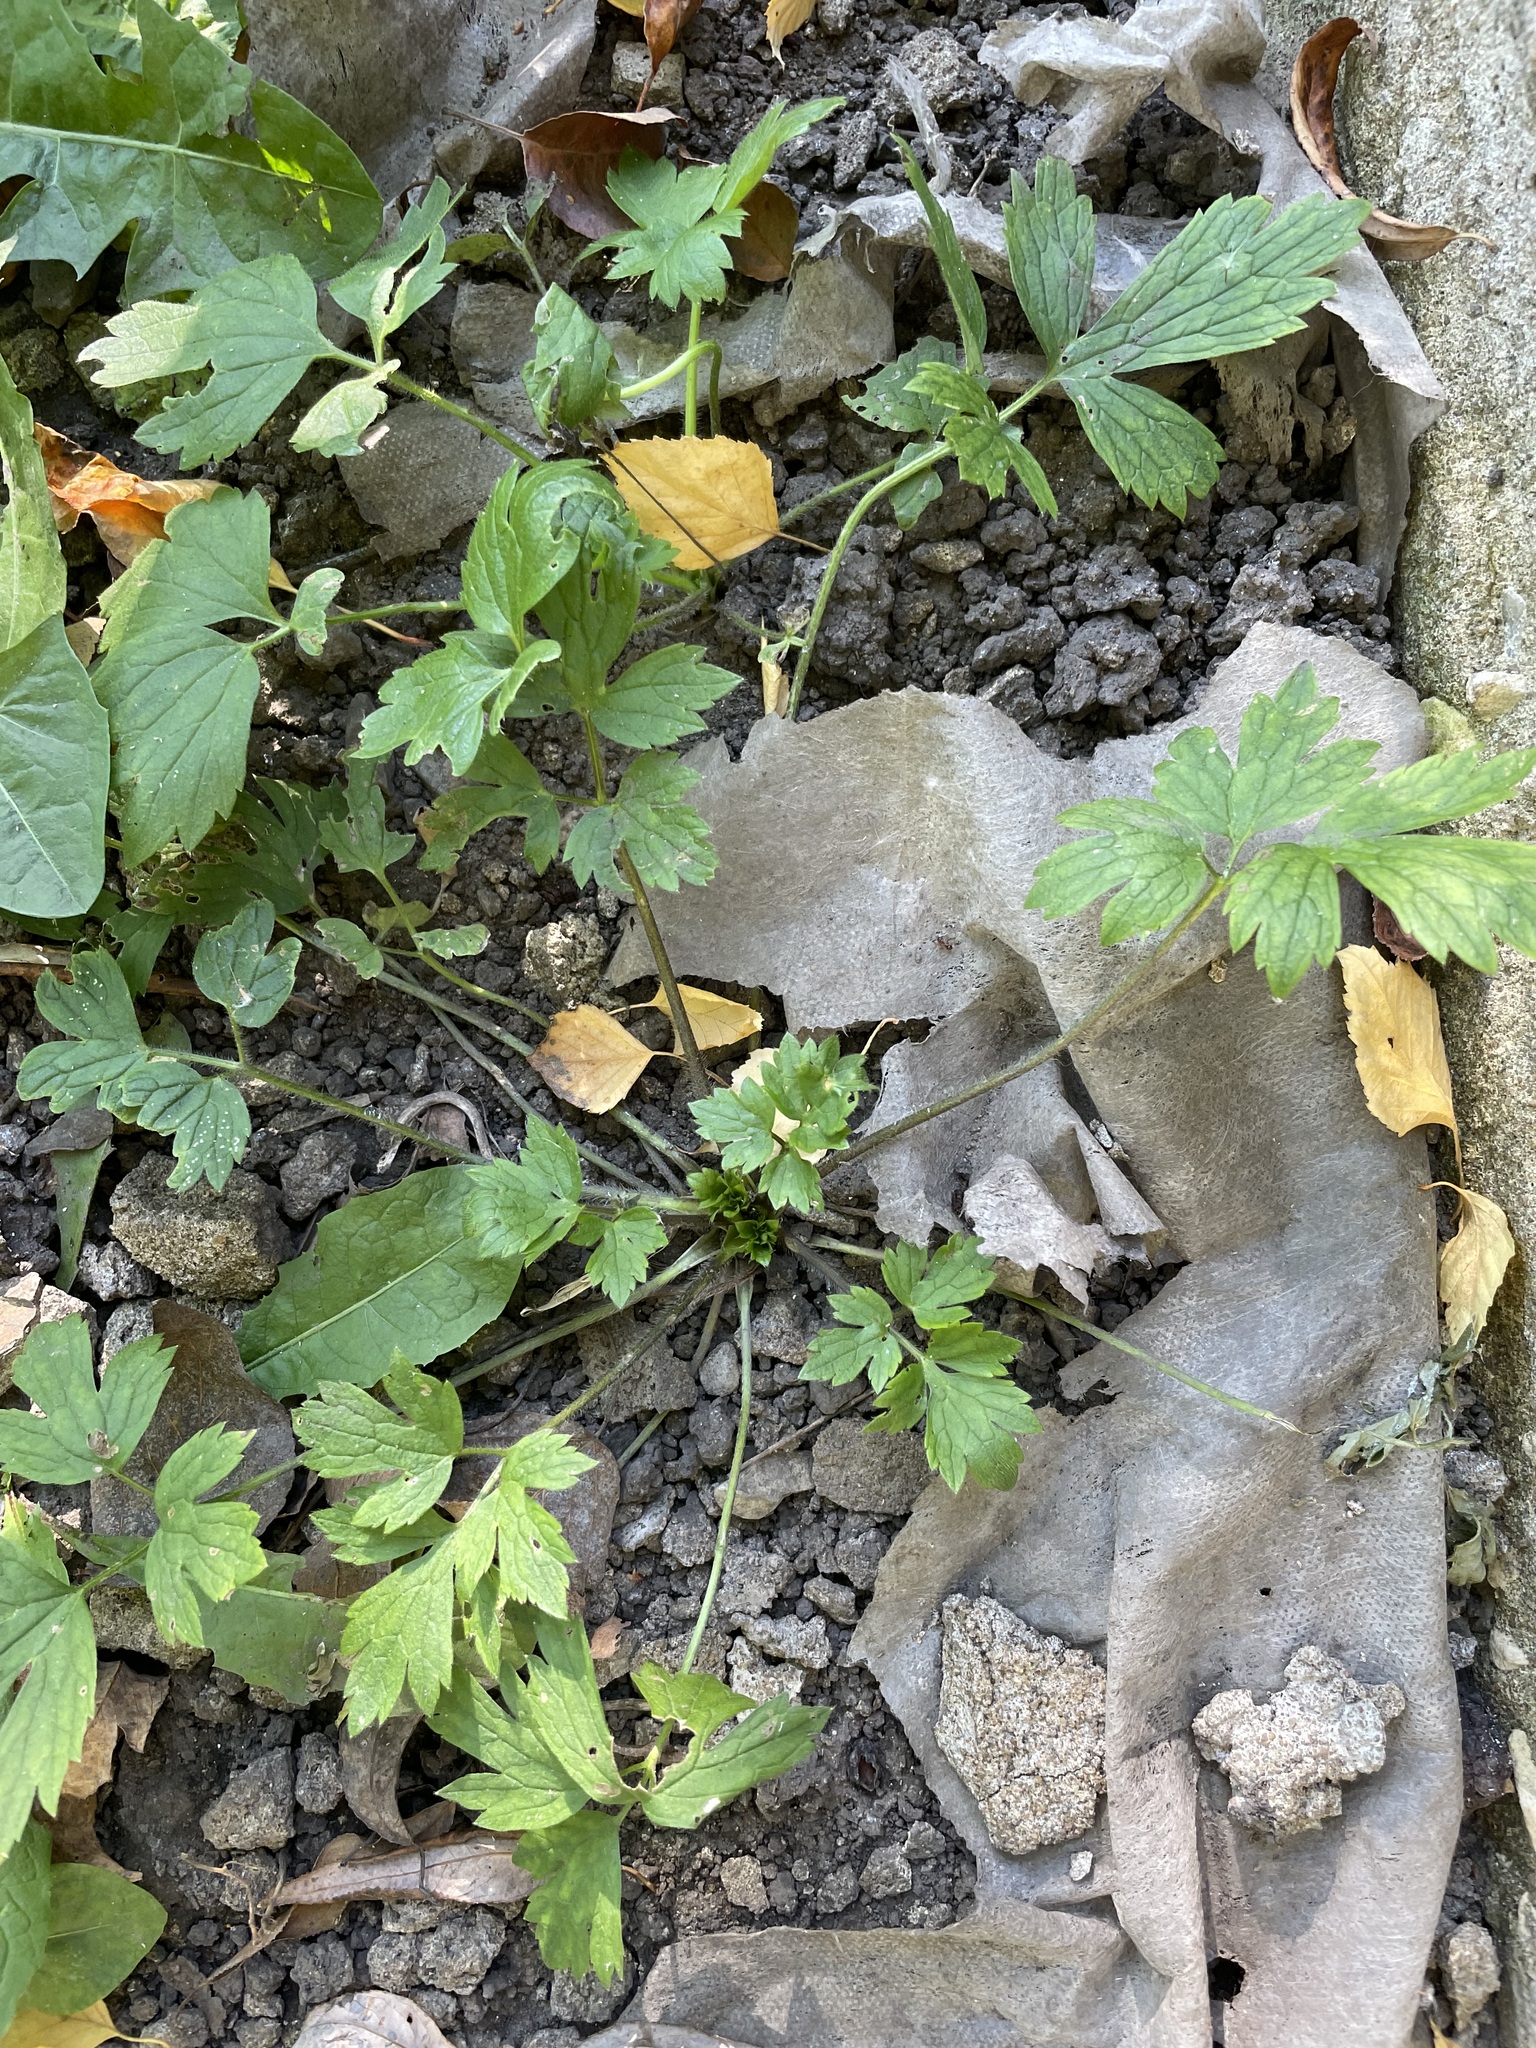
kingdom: Plantae
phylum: Tracheophyta
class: Magnoliopsida
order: Ranunculales
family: Ranunculaceae
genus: Ranunculus
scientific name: Ranunculus repens
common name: Creeping buttercup
